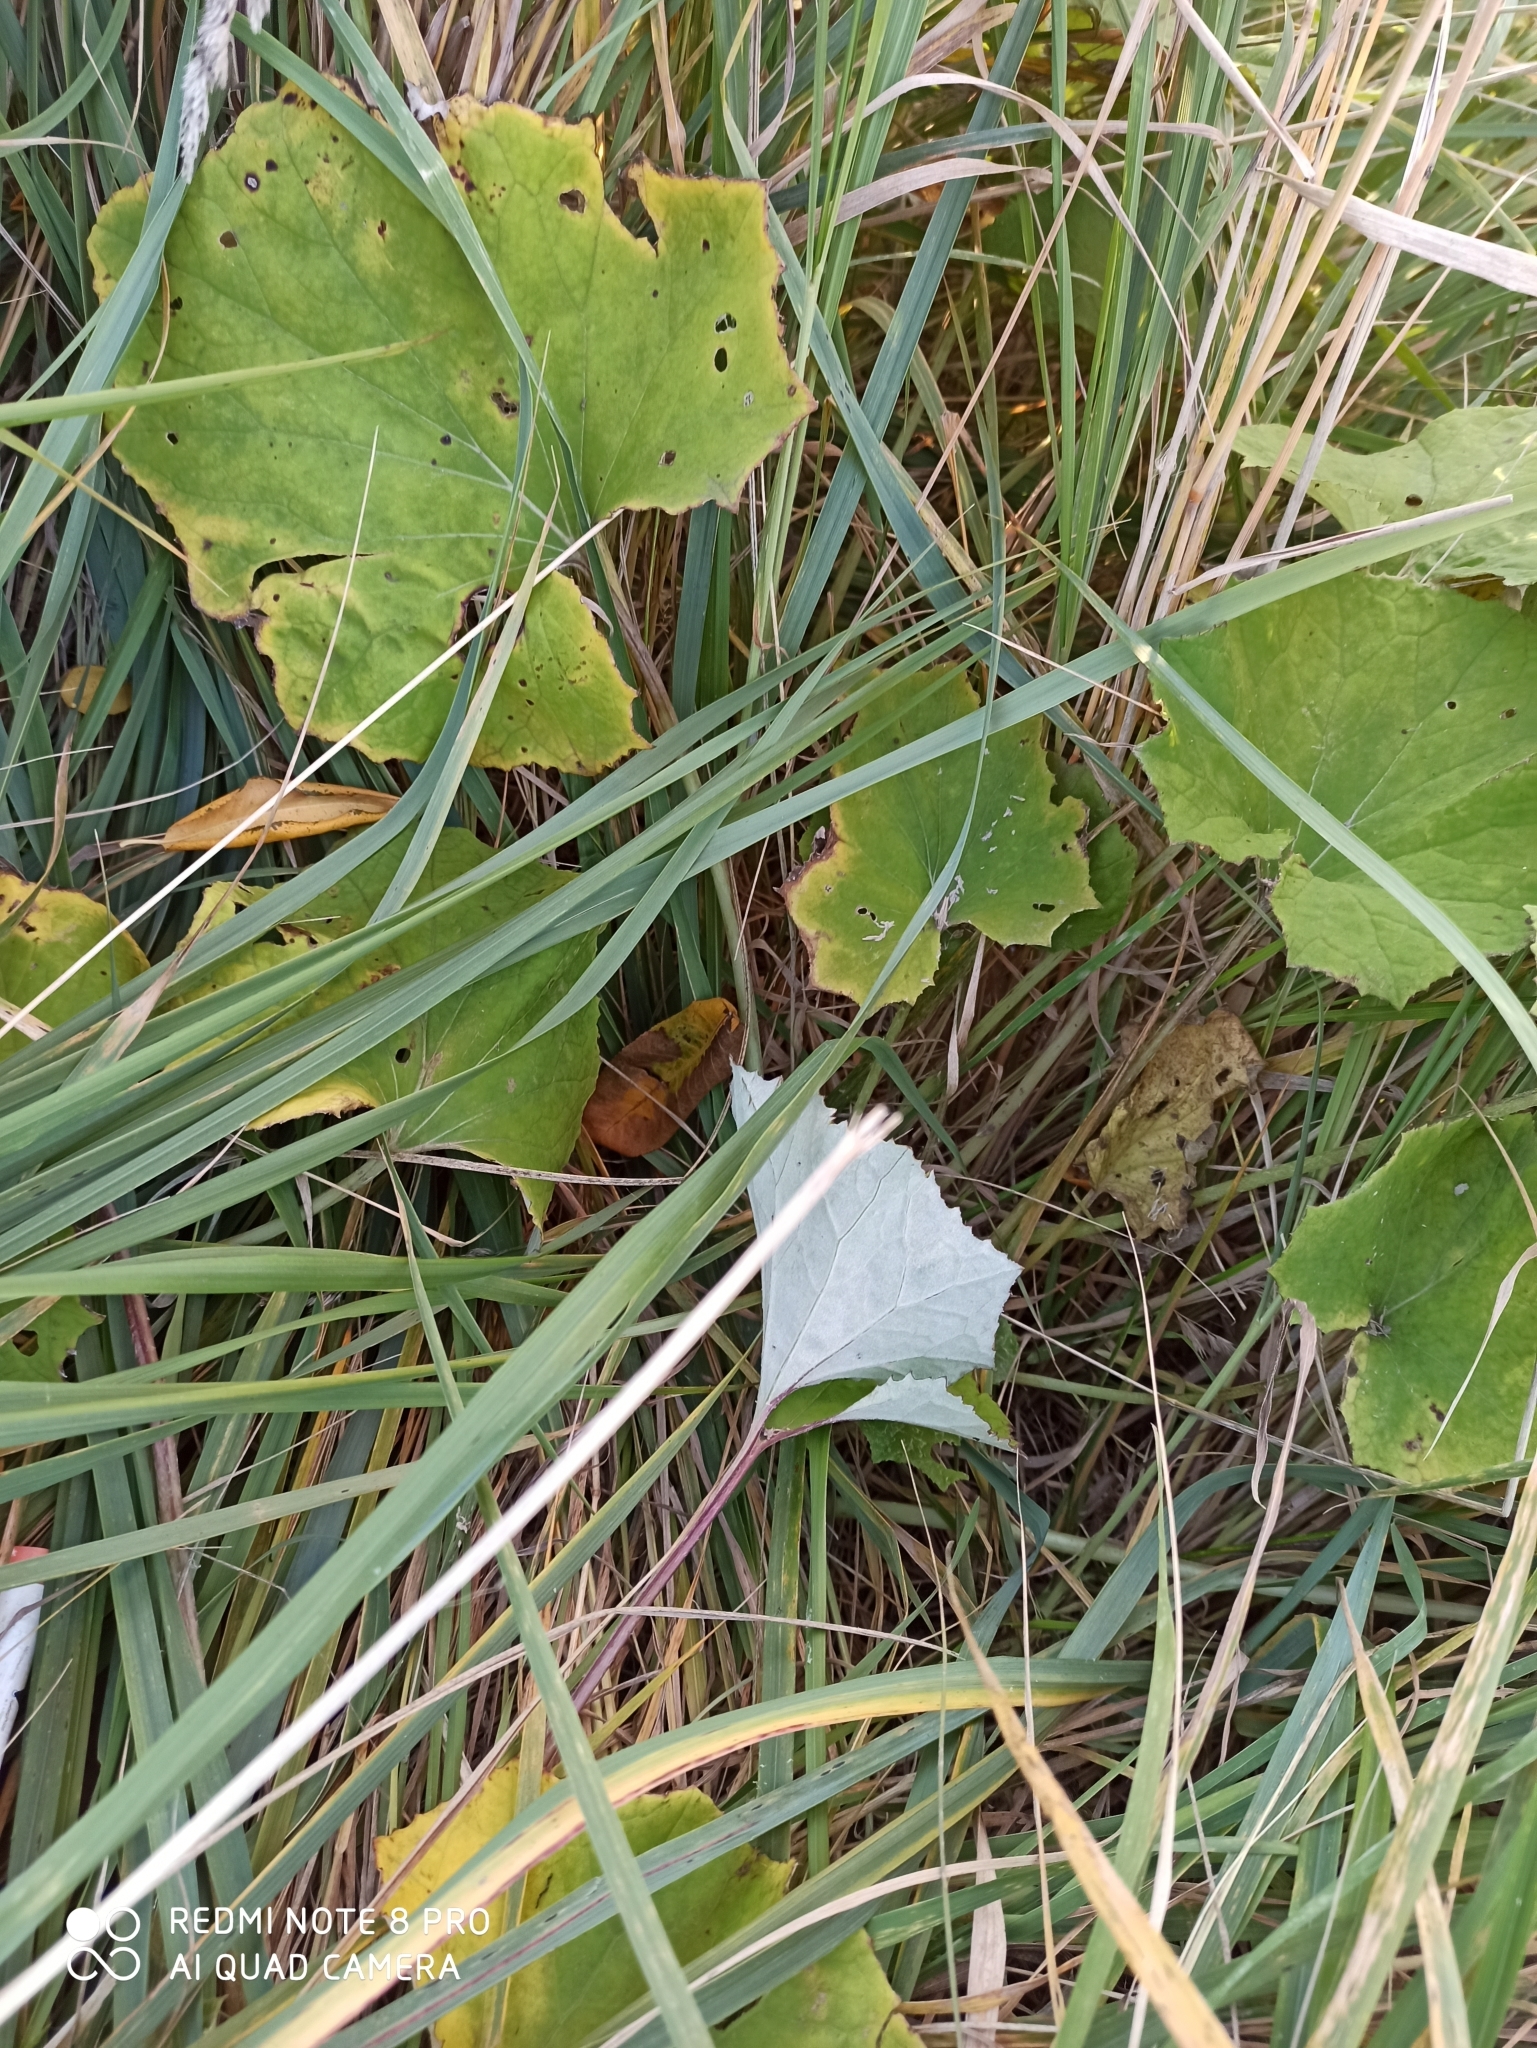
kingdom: Plantae
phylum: Tracheophyta
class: Magnoliopsida
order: Asterales
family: Asteraceae
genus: Tussilago
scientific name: Tussilago farfara
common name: Coltsfoot
